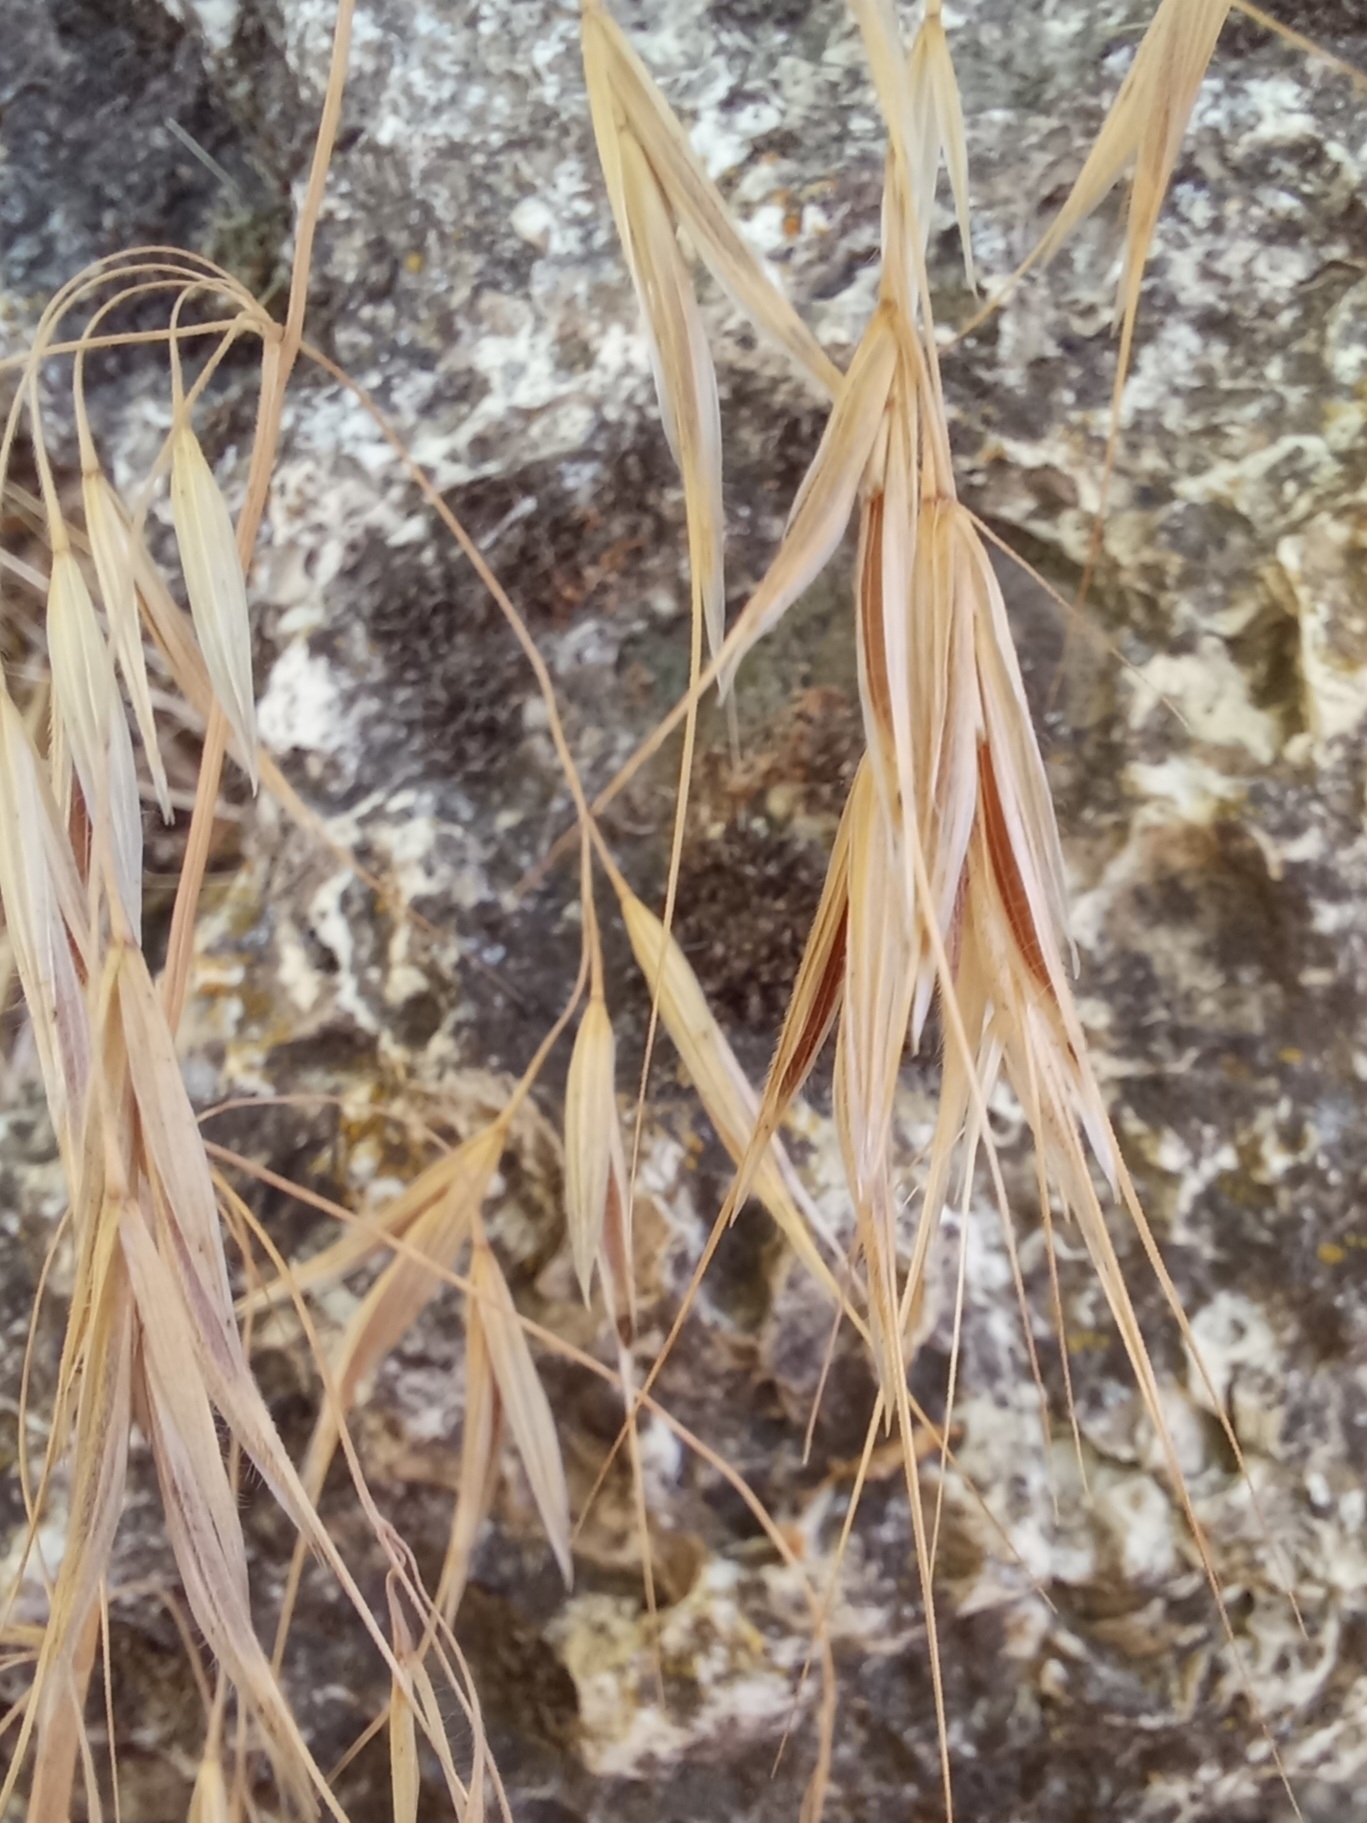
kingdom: Plantae
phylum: Tracheophyta
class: Liliopsida
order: Poales
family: Poaceae
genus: Bromus
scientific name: Bromus tectorum
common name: Cheatgrass
